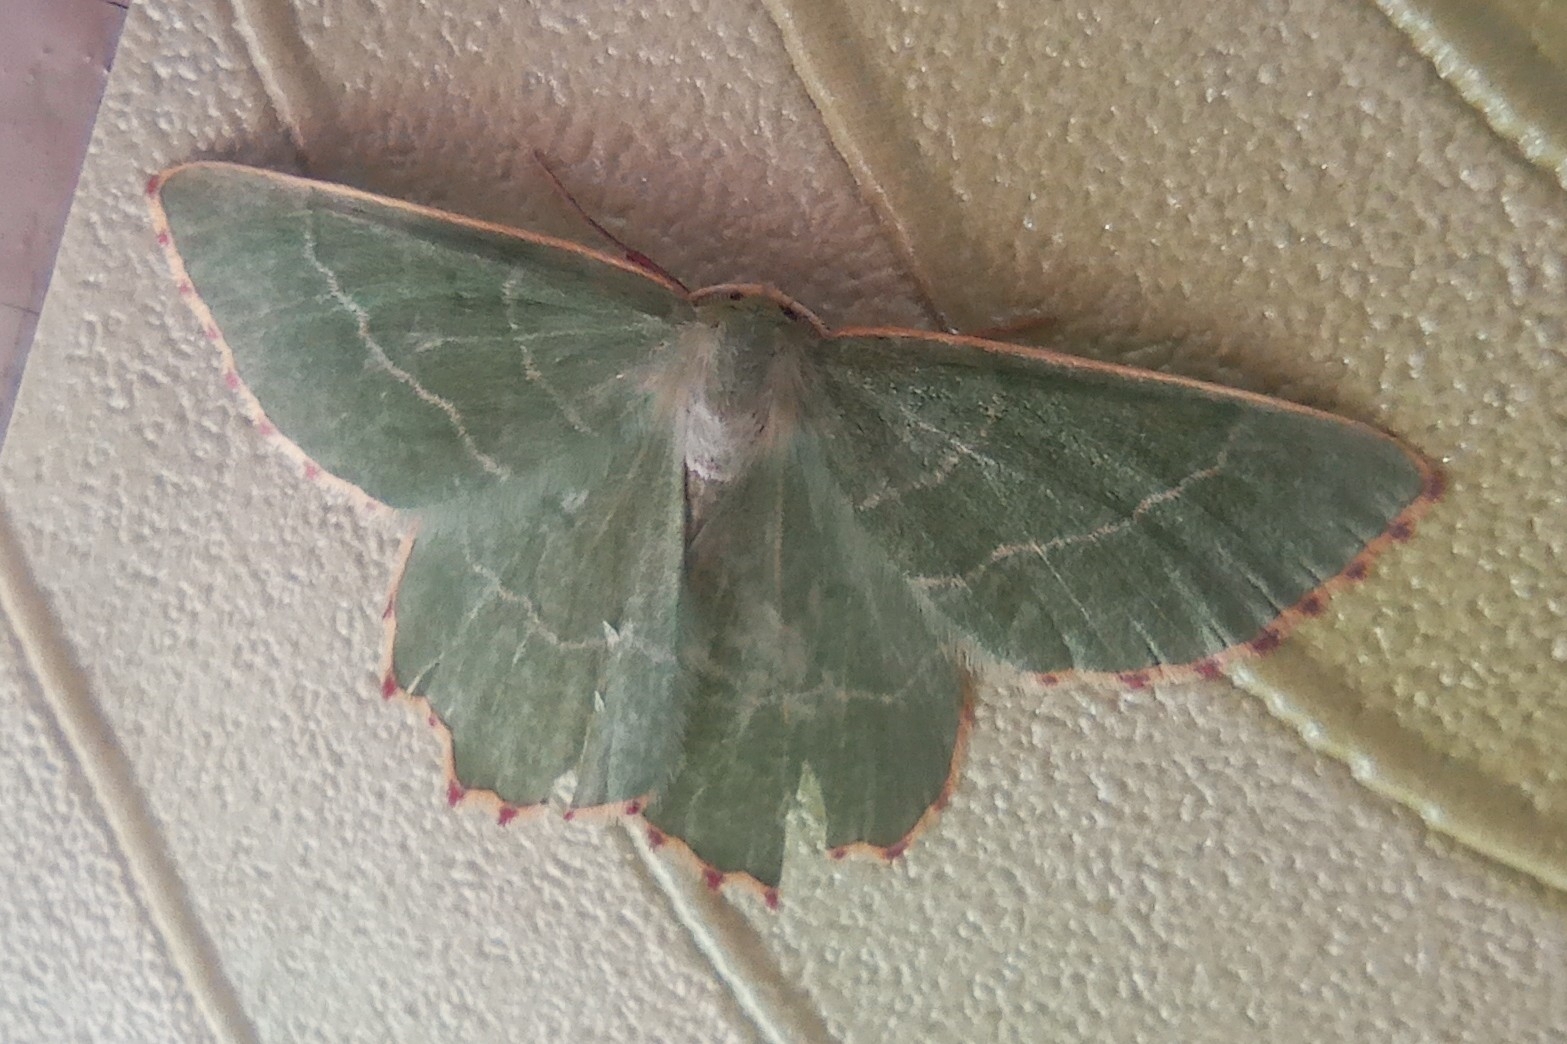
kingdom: Animalia
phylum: Arthropoda
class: Insecta
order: Lepidoptera
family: Geometridae
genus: Thalera
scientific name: Thalera fimbrialis
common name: Sussex emerald
